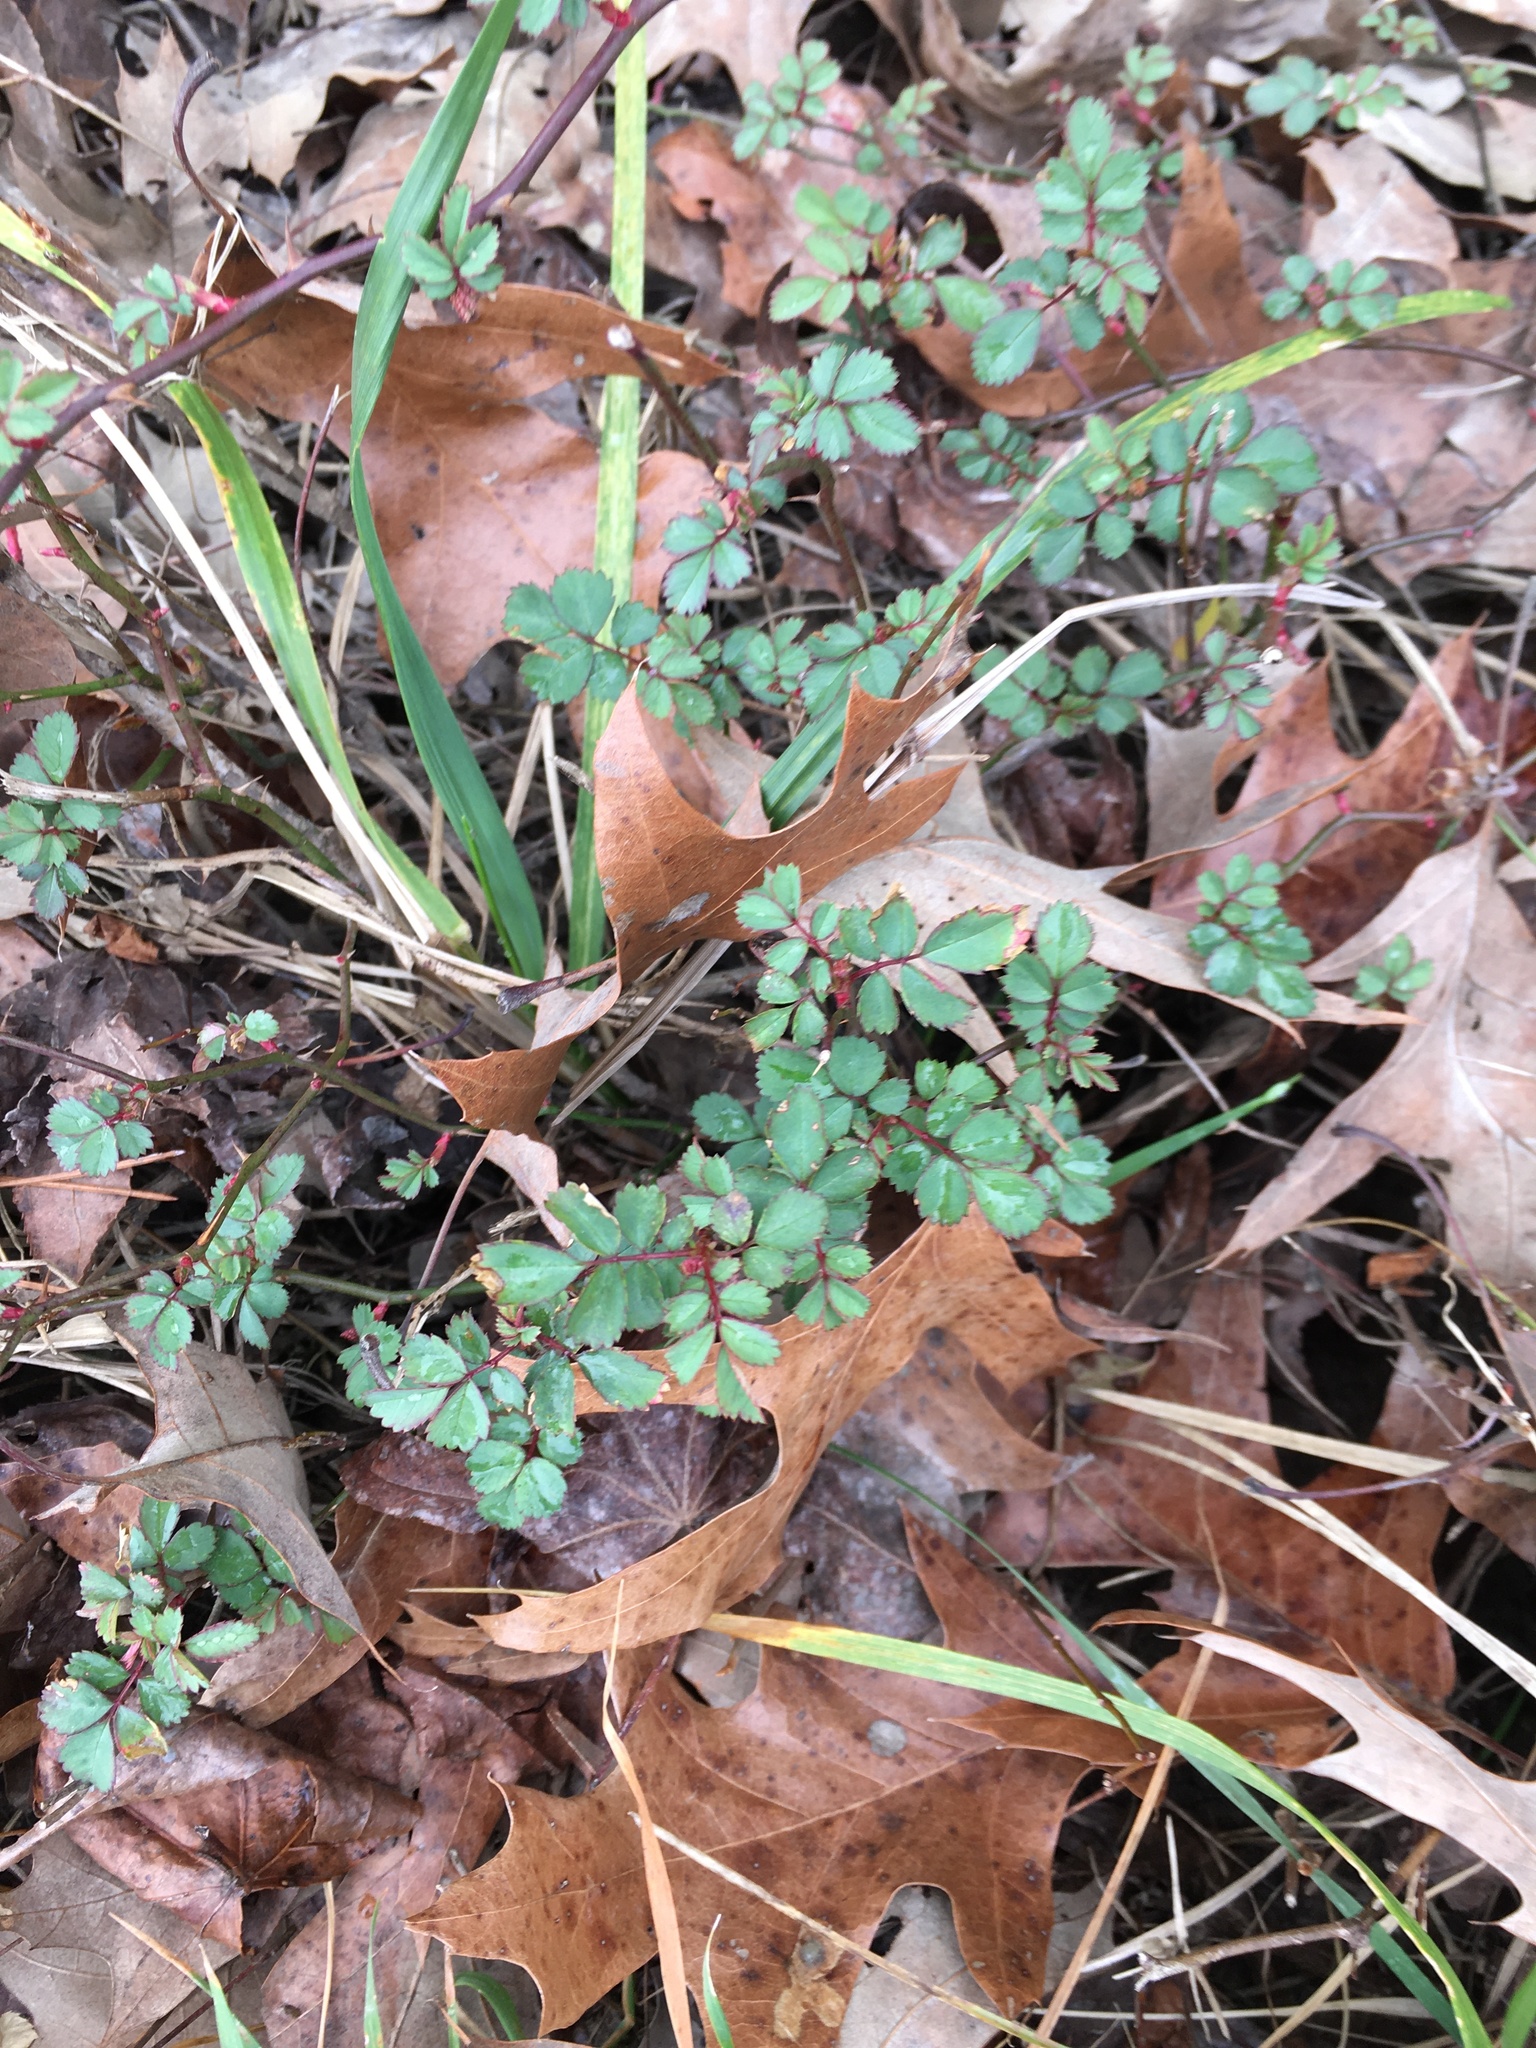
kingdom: Plantae
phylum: Tracheophyta
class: Magnoliopsida
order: Rosales
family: Rosaceae
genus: Rosa
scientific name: Rosa multiflora
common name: Multiflora rose
